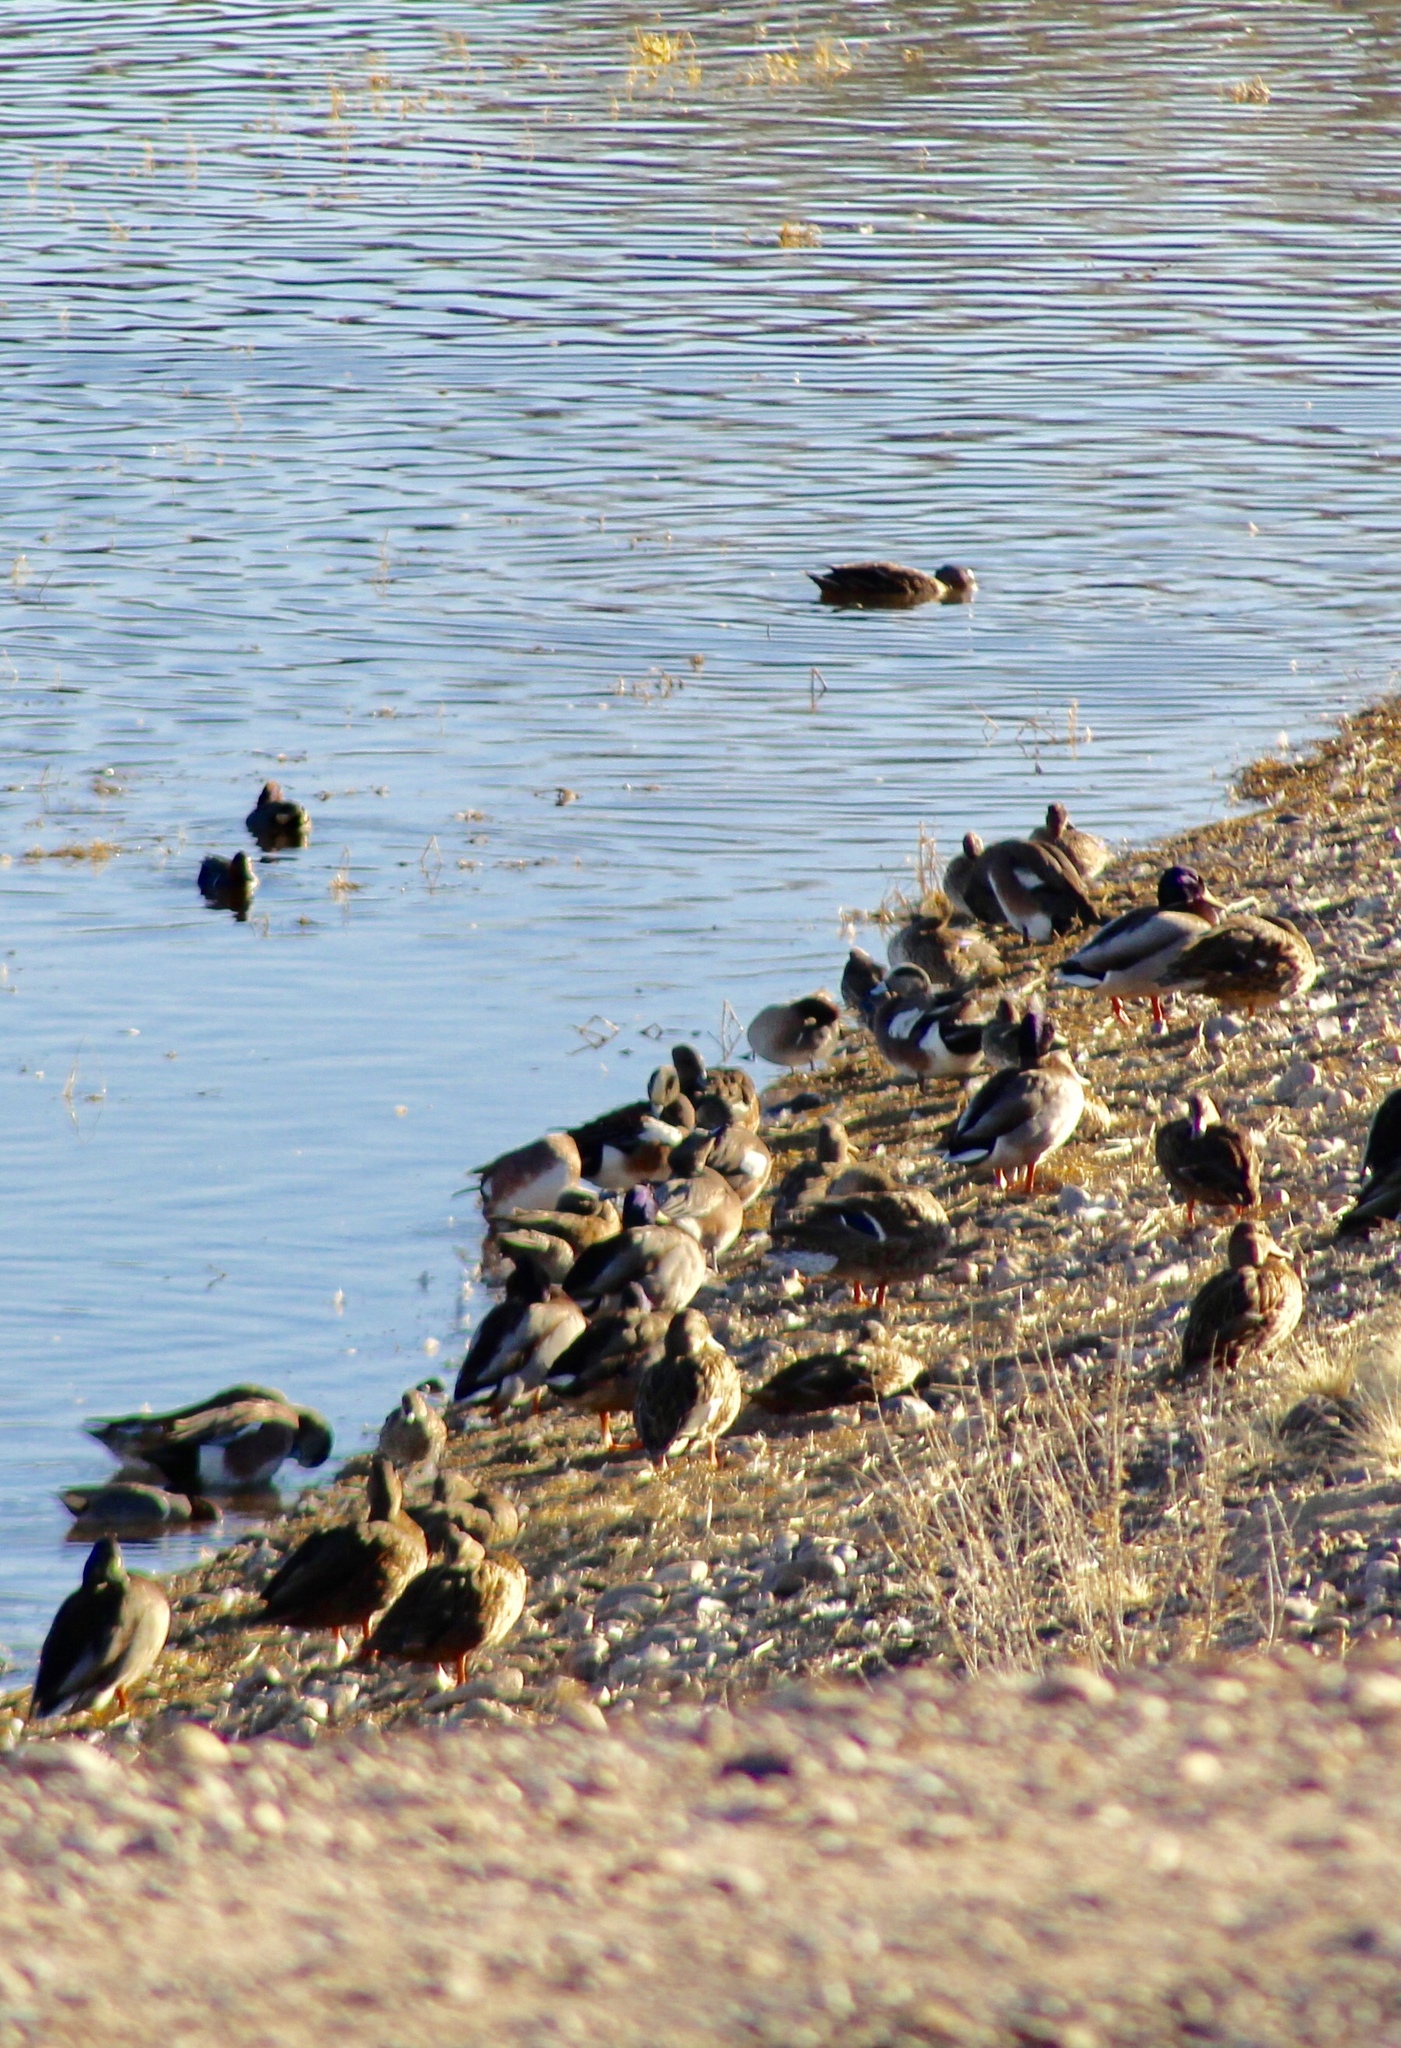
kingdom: Animalia
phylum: Chordata
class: Aves
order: Anseriformes
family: Anatidae
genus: Anas
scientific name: Anas platyrhynchos
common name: Mallard
